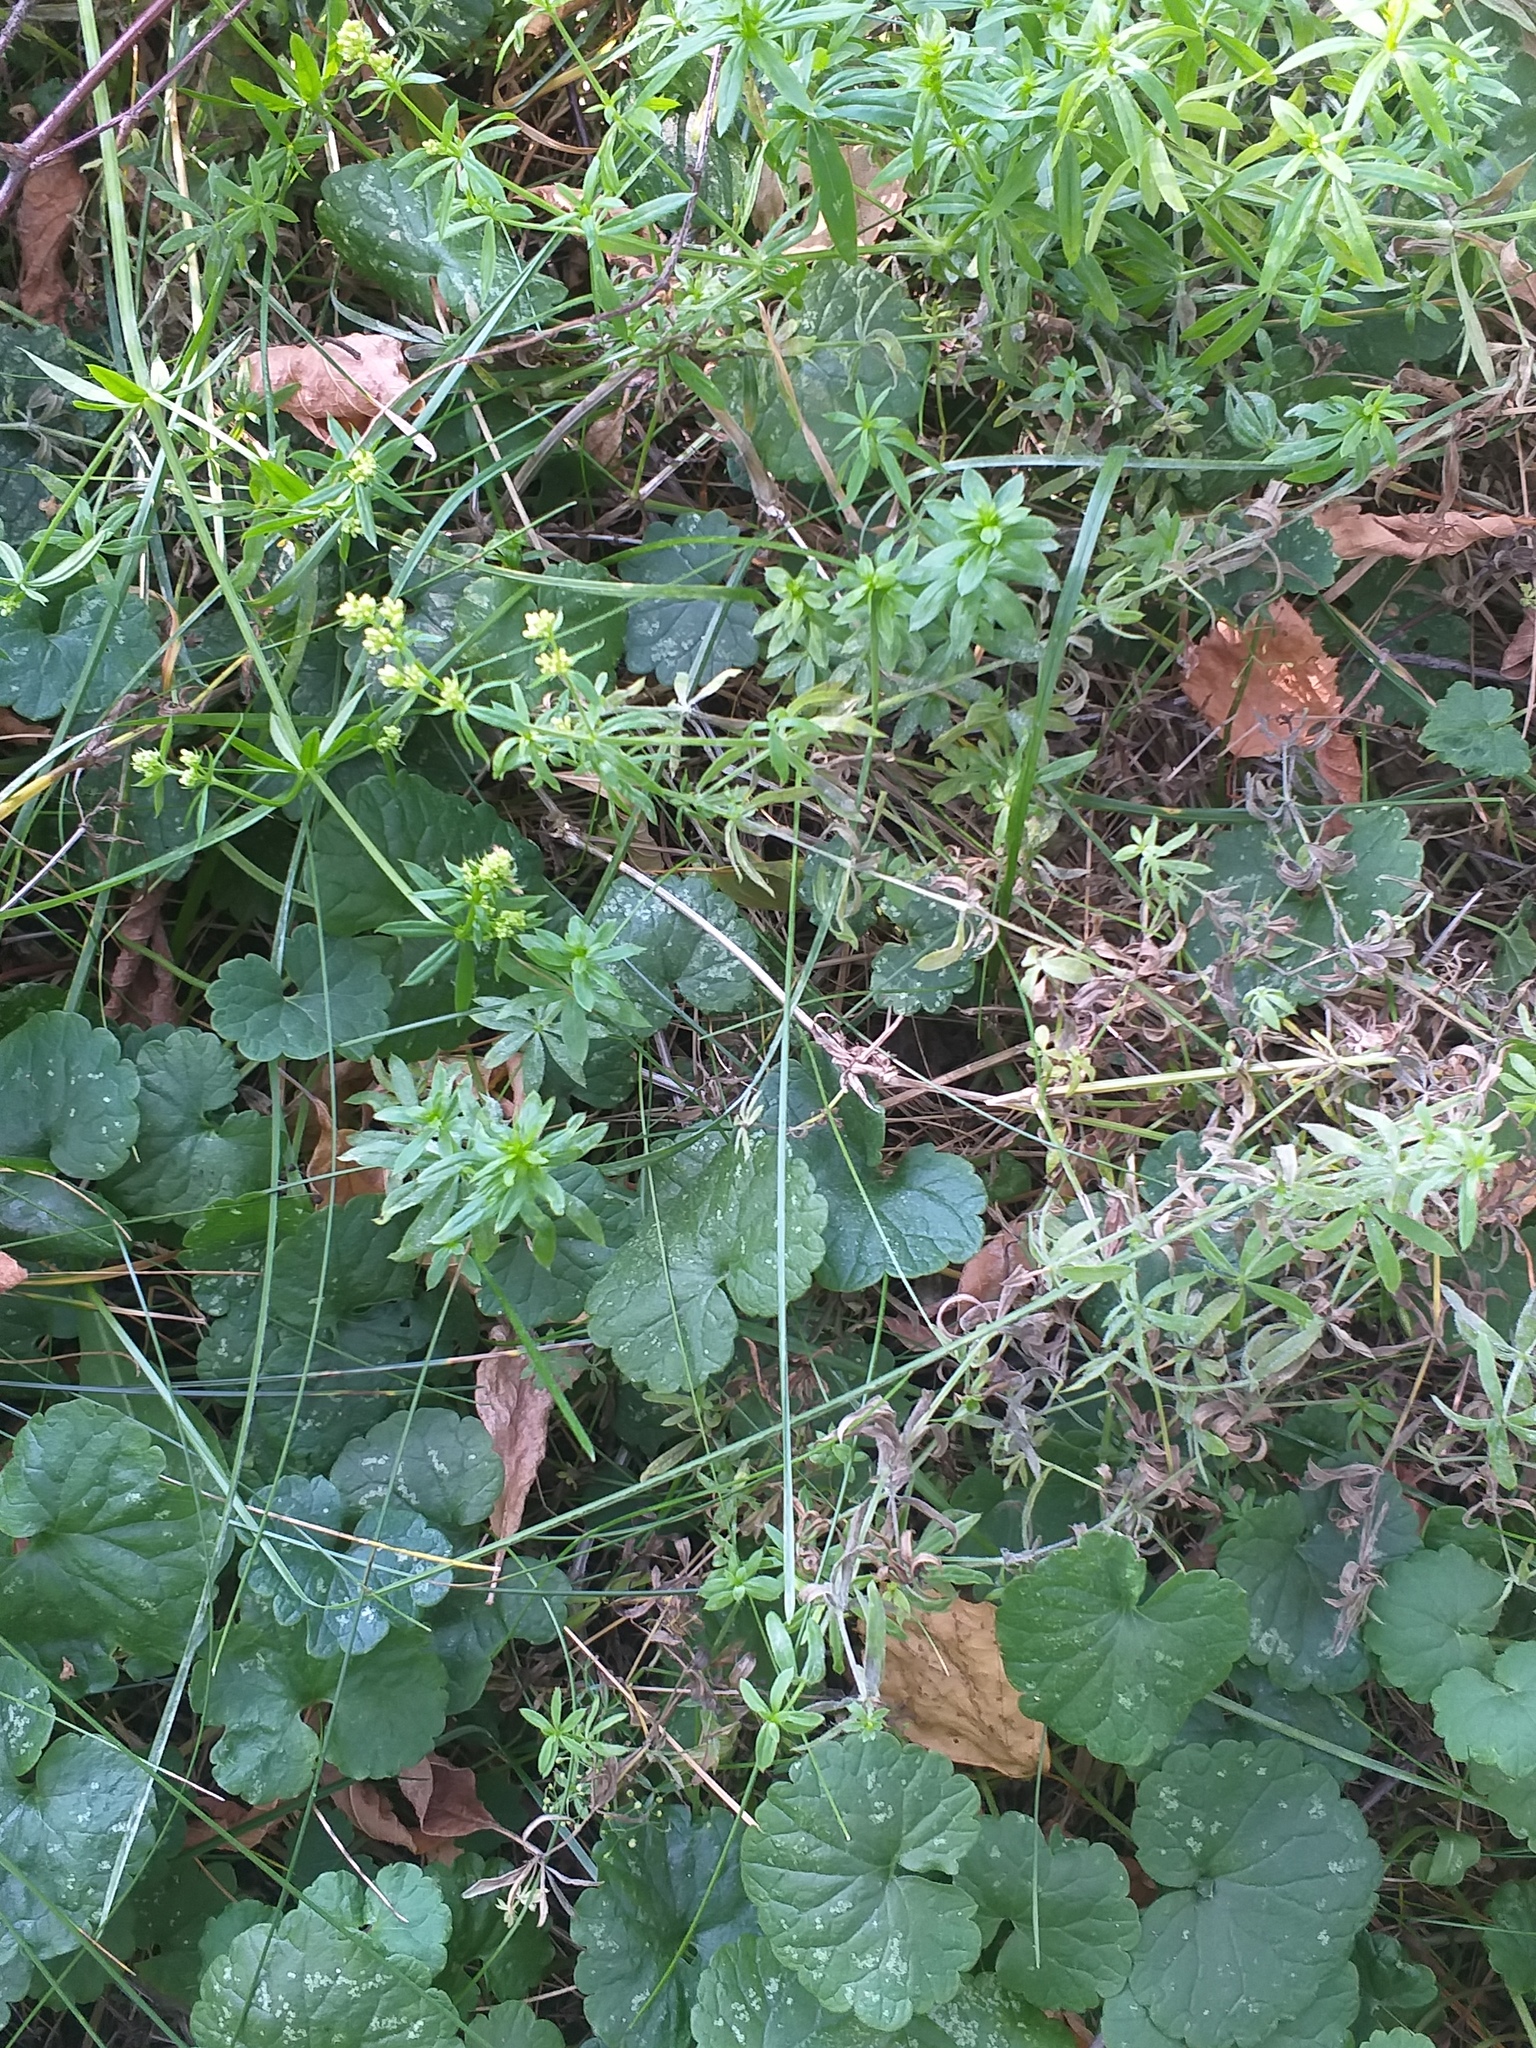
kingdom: Plantae
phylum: Tracheophyta
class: Magnoliopsida
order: Gentianales
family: Rubiaceae
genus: Galium
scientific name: Galium mollugo
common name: Hedge bedstraw
